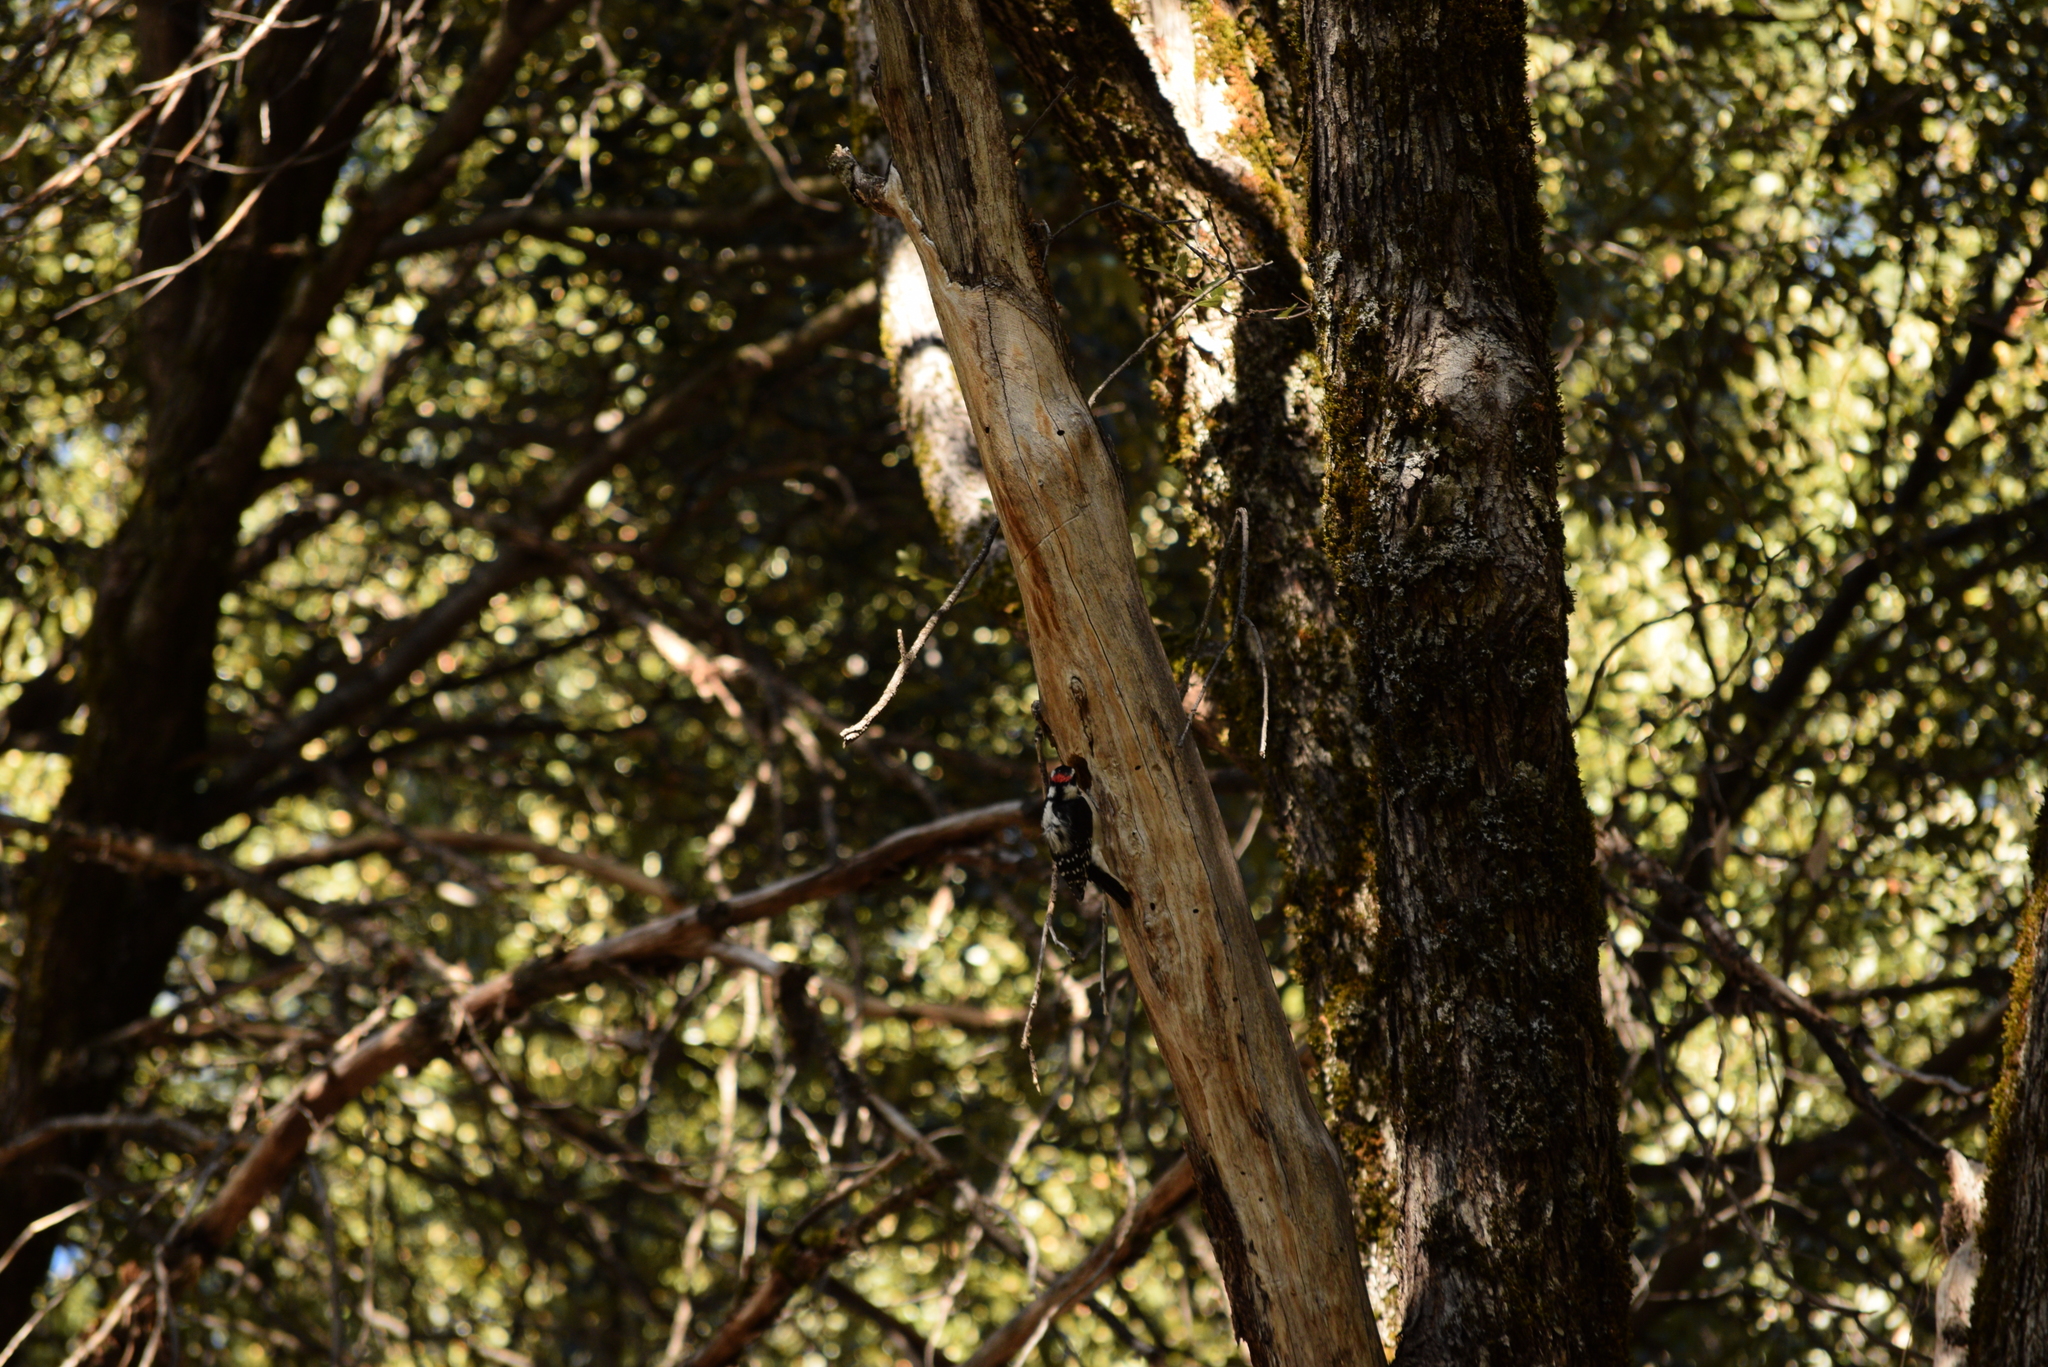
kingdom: Animalia
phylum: Chordata
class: Aves
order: Piciformes
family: Picidae
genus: Dryobates
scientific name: Dryobates pubescens
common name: Downy woodpecker
